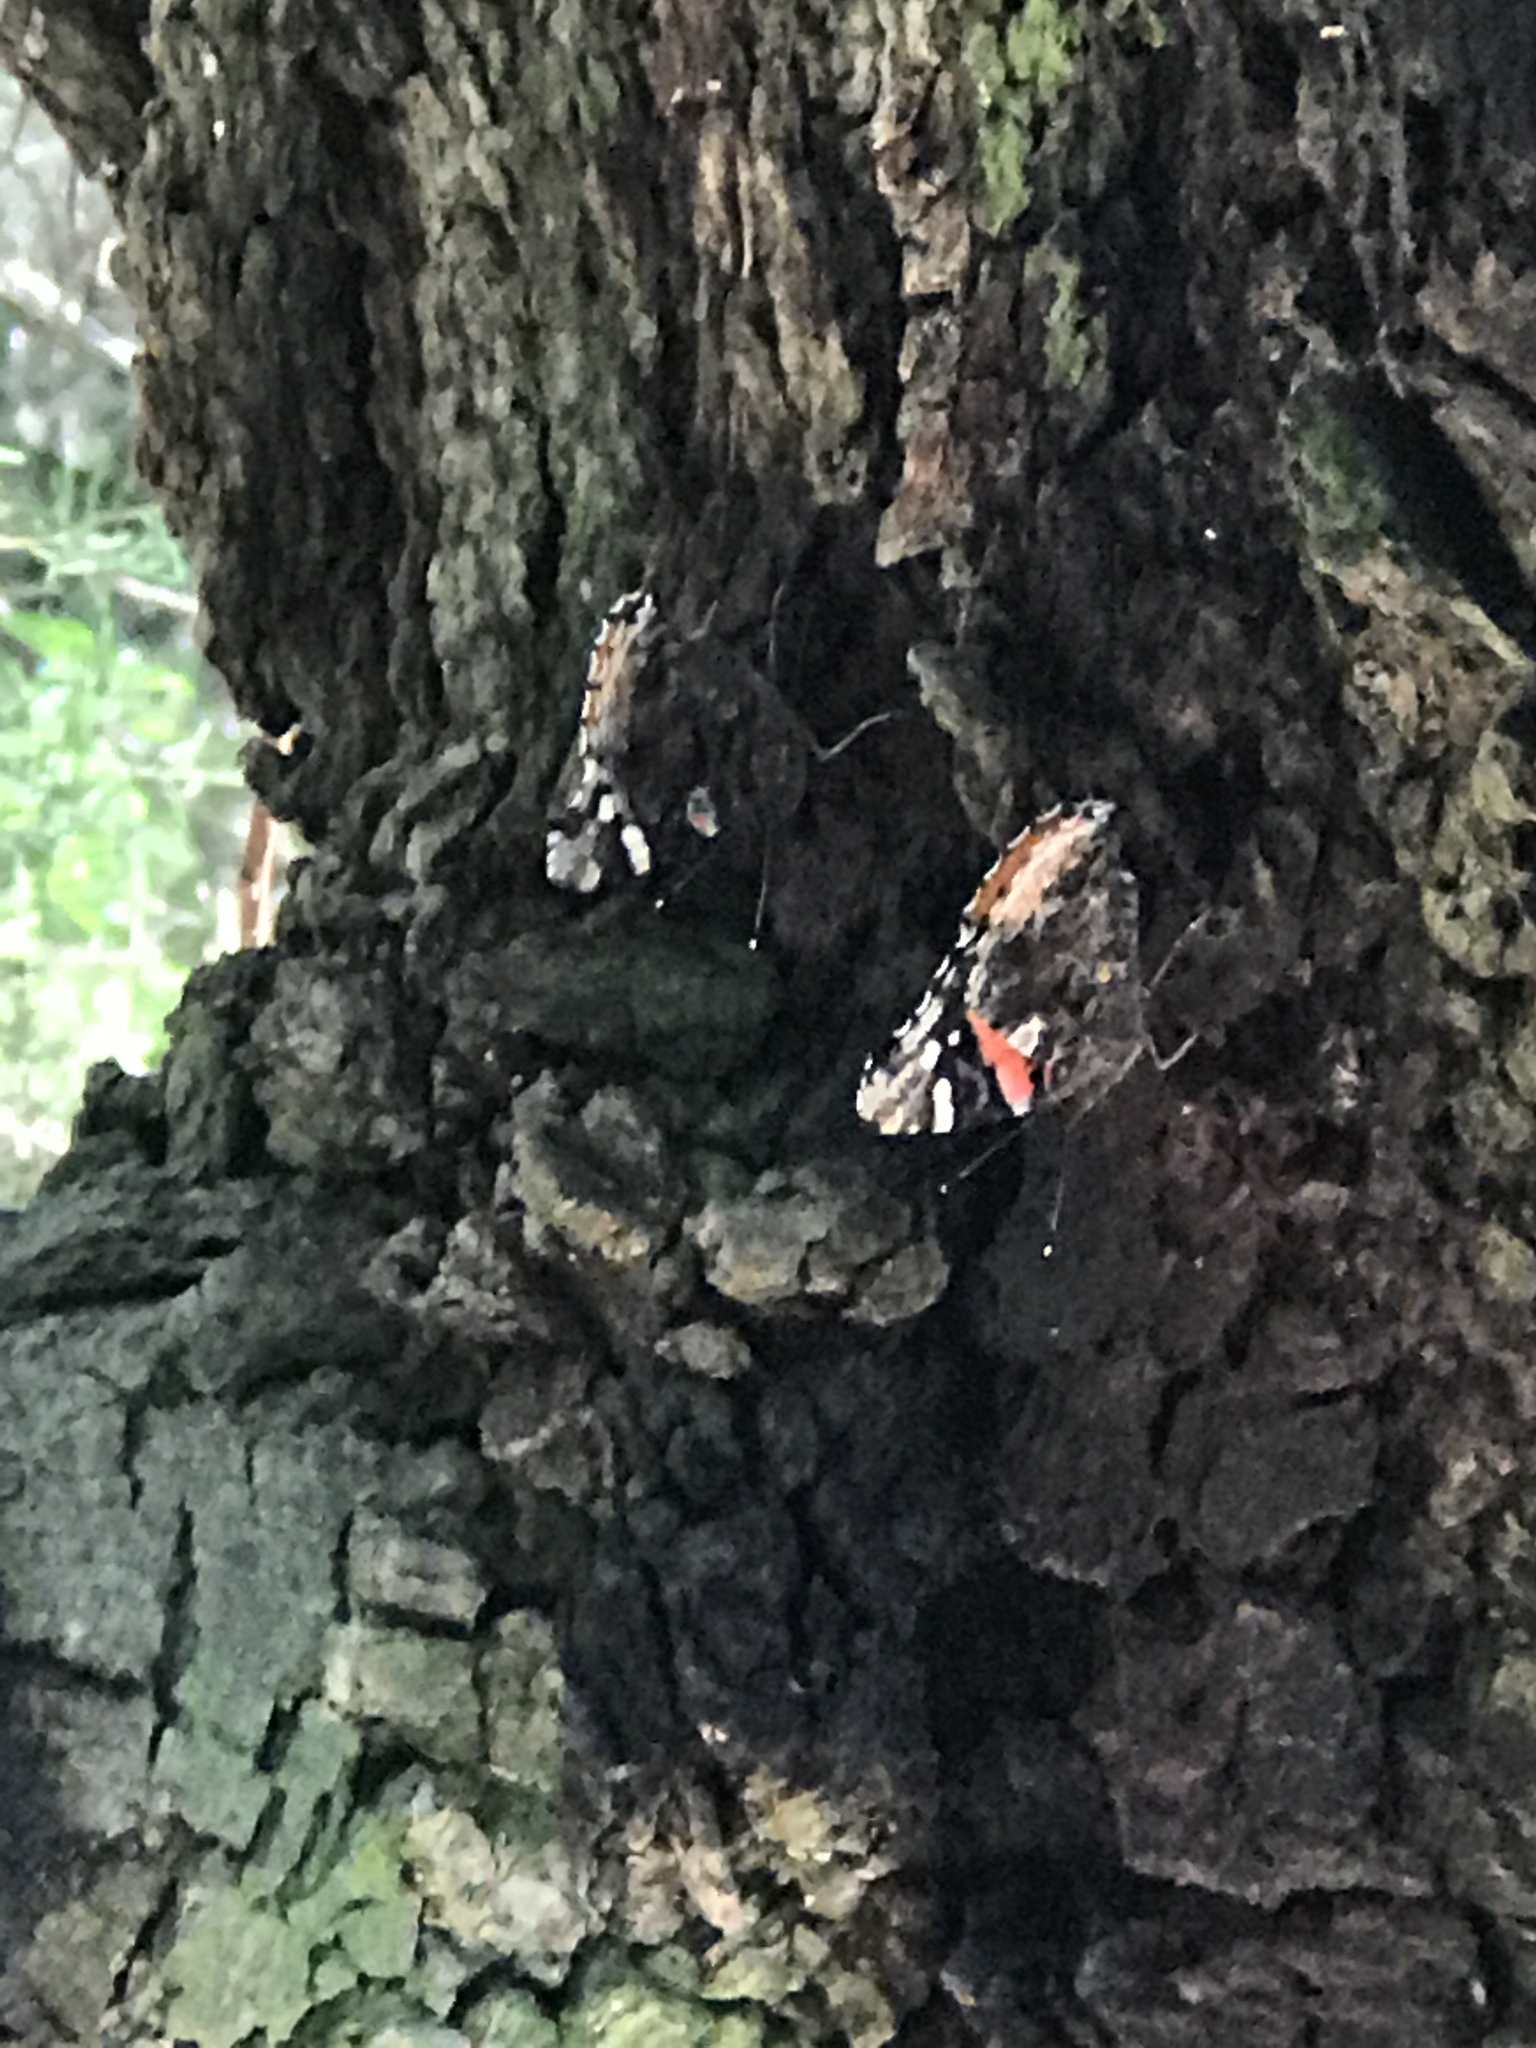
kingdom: Animalia
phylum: Arthropoda
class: Insecta
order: Lepidoptera
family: Nymphalidae
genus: Vanessa
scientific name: Vanessa atalanta
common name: Red admiral
